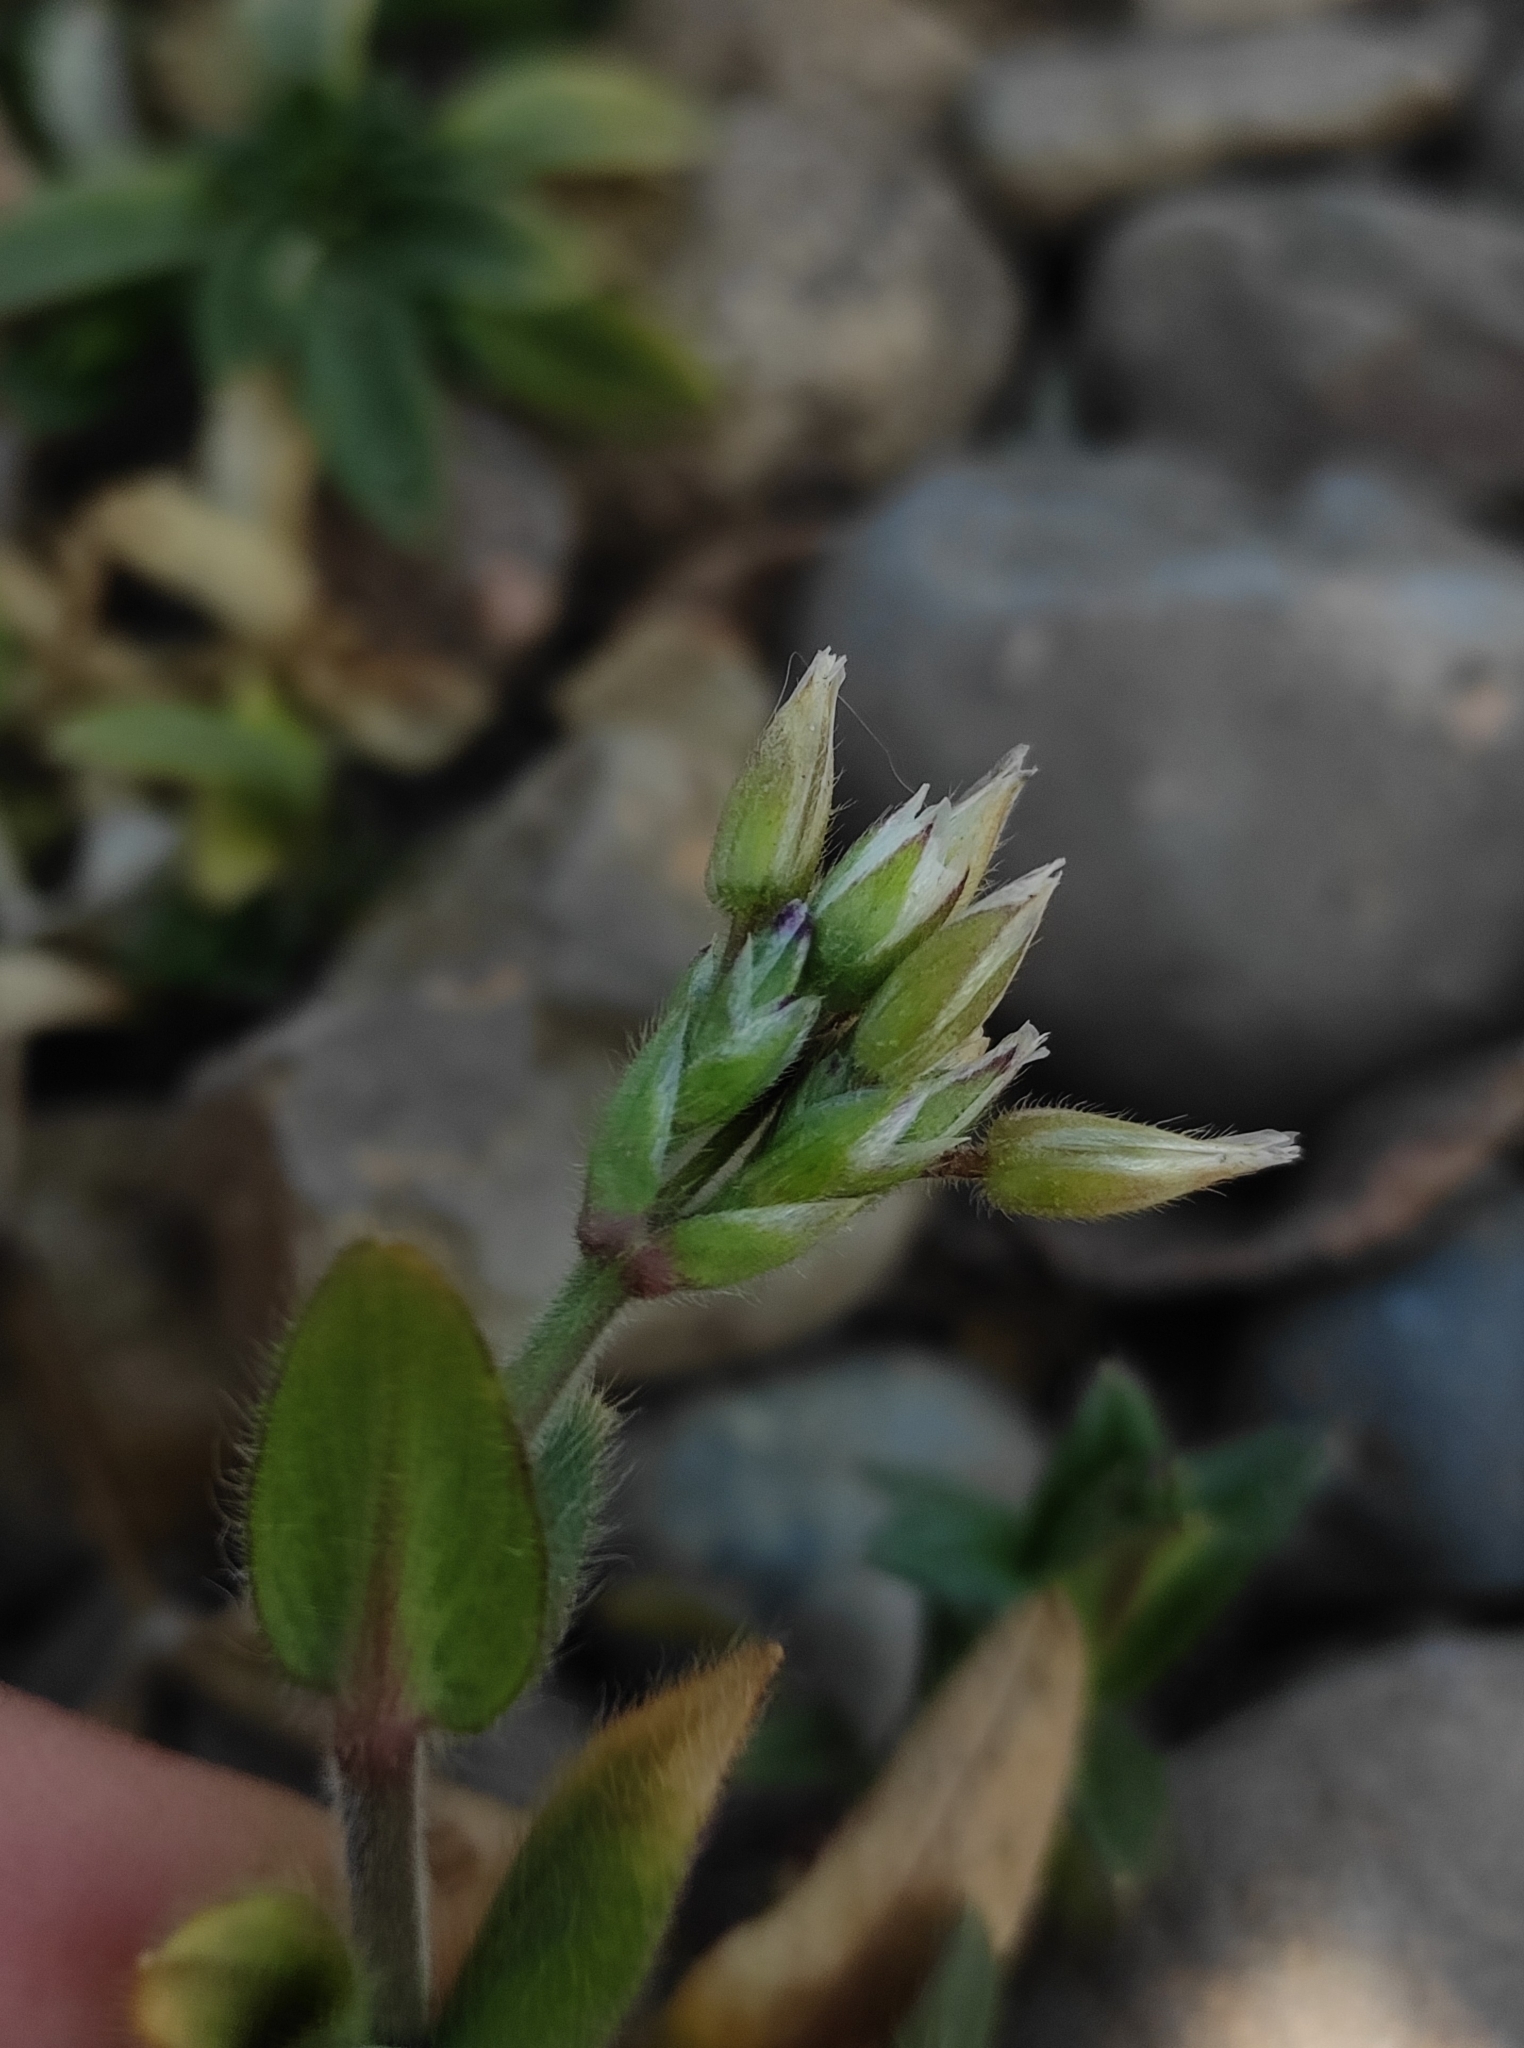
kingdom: Plantae
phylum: Tracheophyta
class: Magnoliopsida
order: Caryophyllales
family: Caryophyllaceae
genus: Cerastium
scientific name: Cerastium holosteoides
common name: Big chickweed
